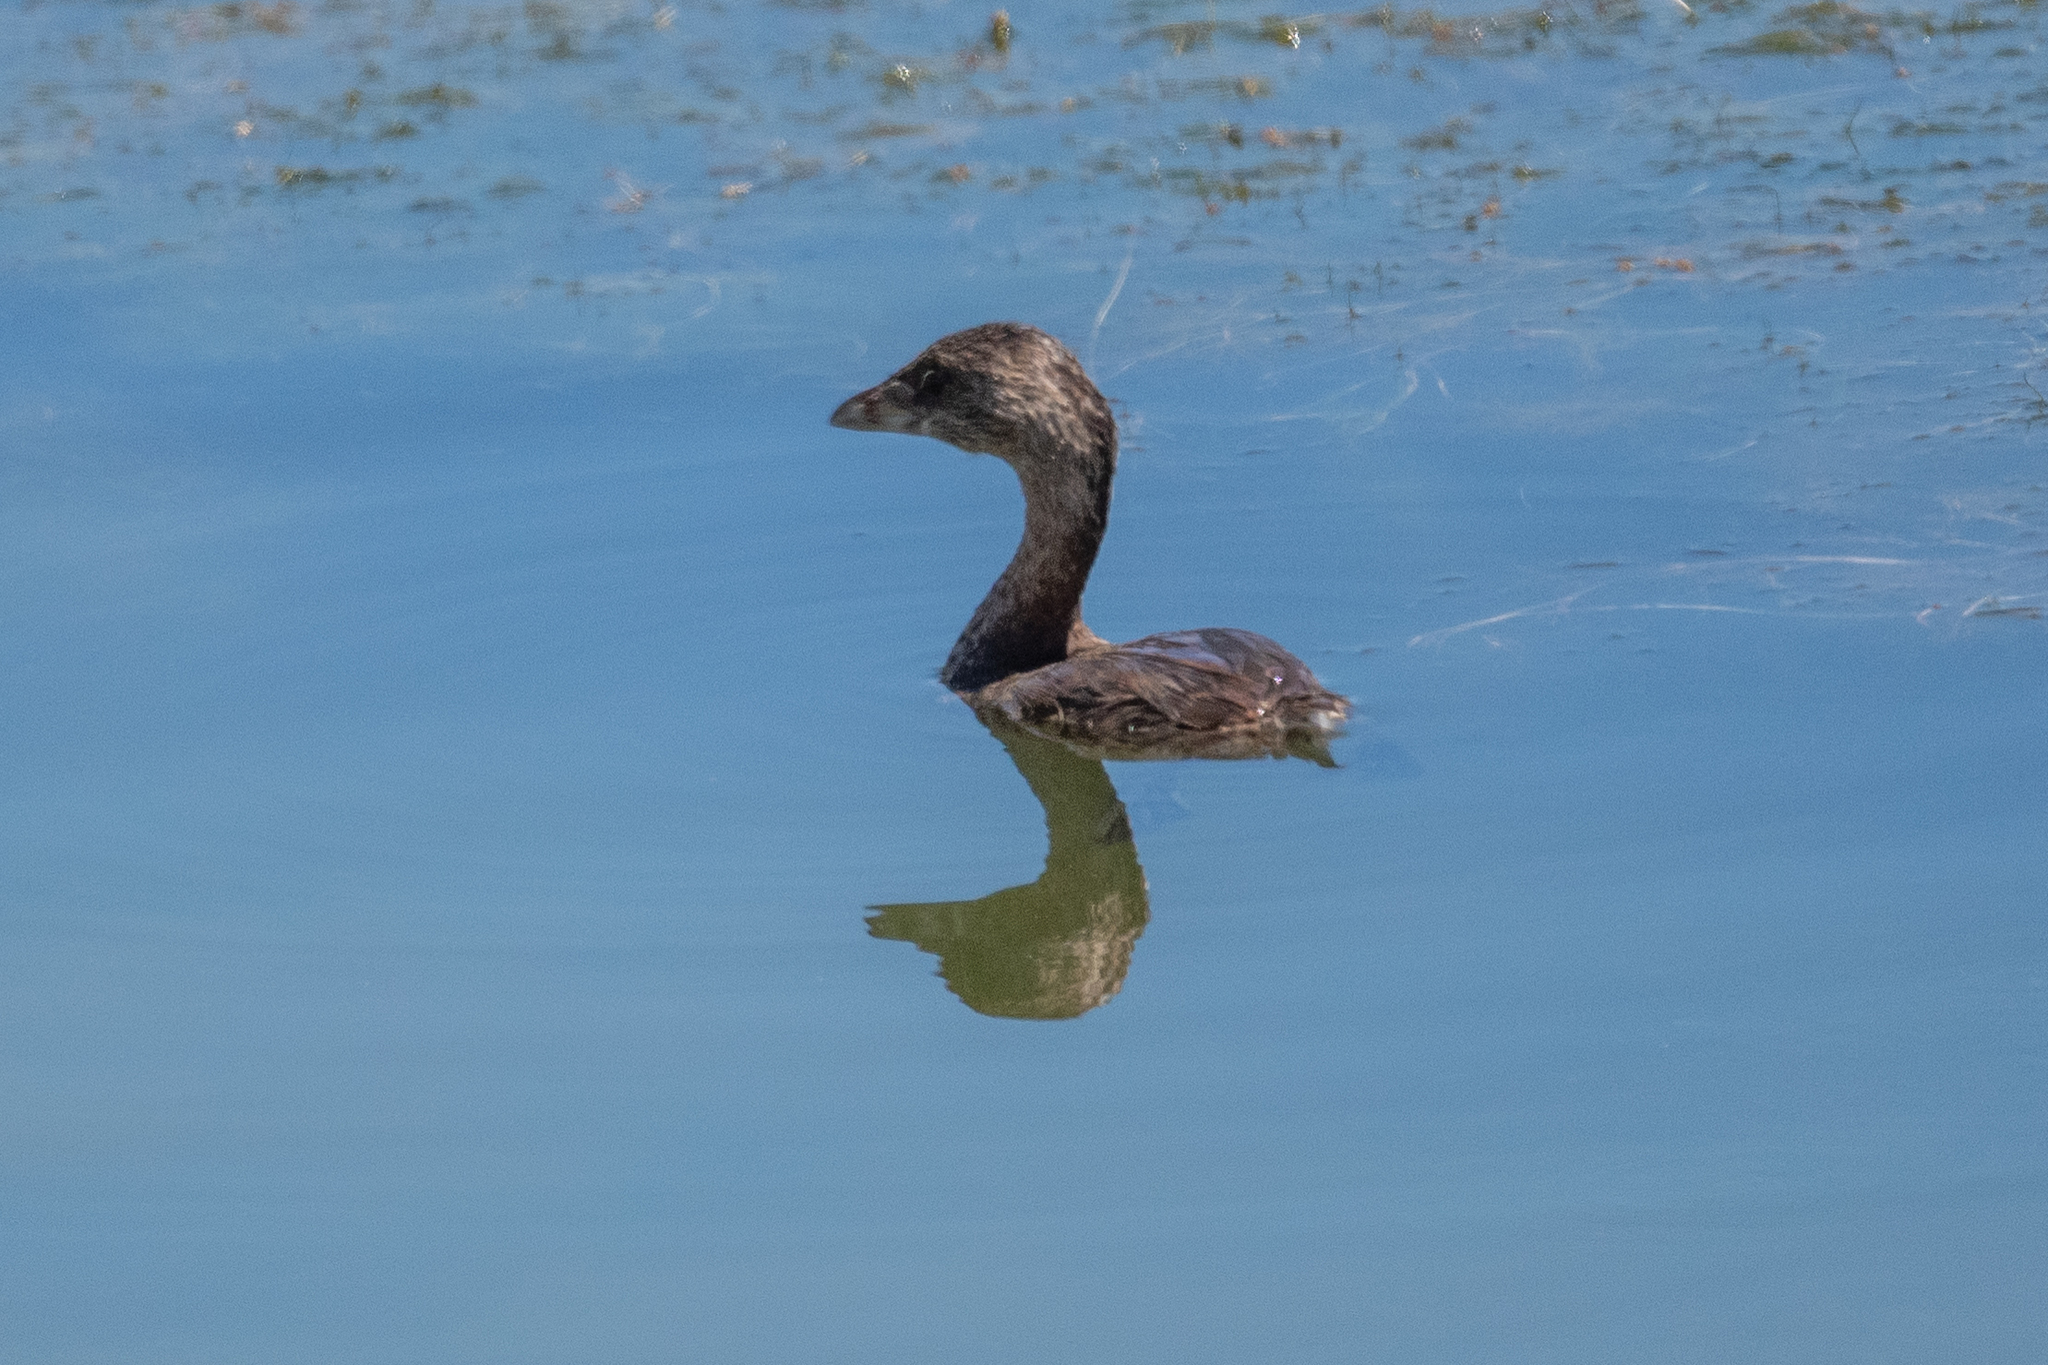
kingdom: Animalia
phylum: Chordata
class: Aves
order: Podicipediformes
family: Podicipedidae
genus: Podilymbus
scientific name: Podilymbus podiceps
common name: Pied-billed grebe
